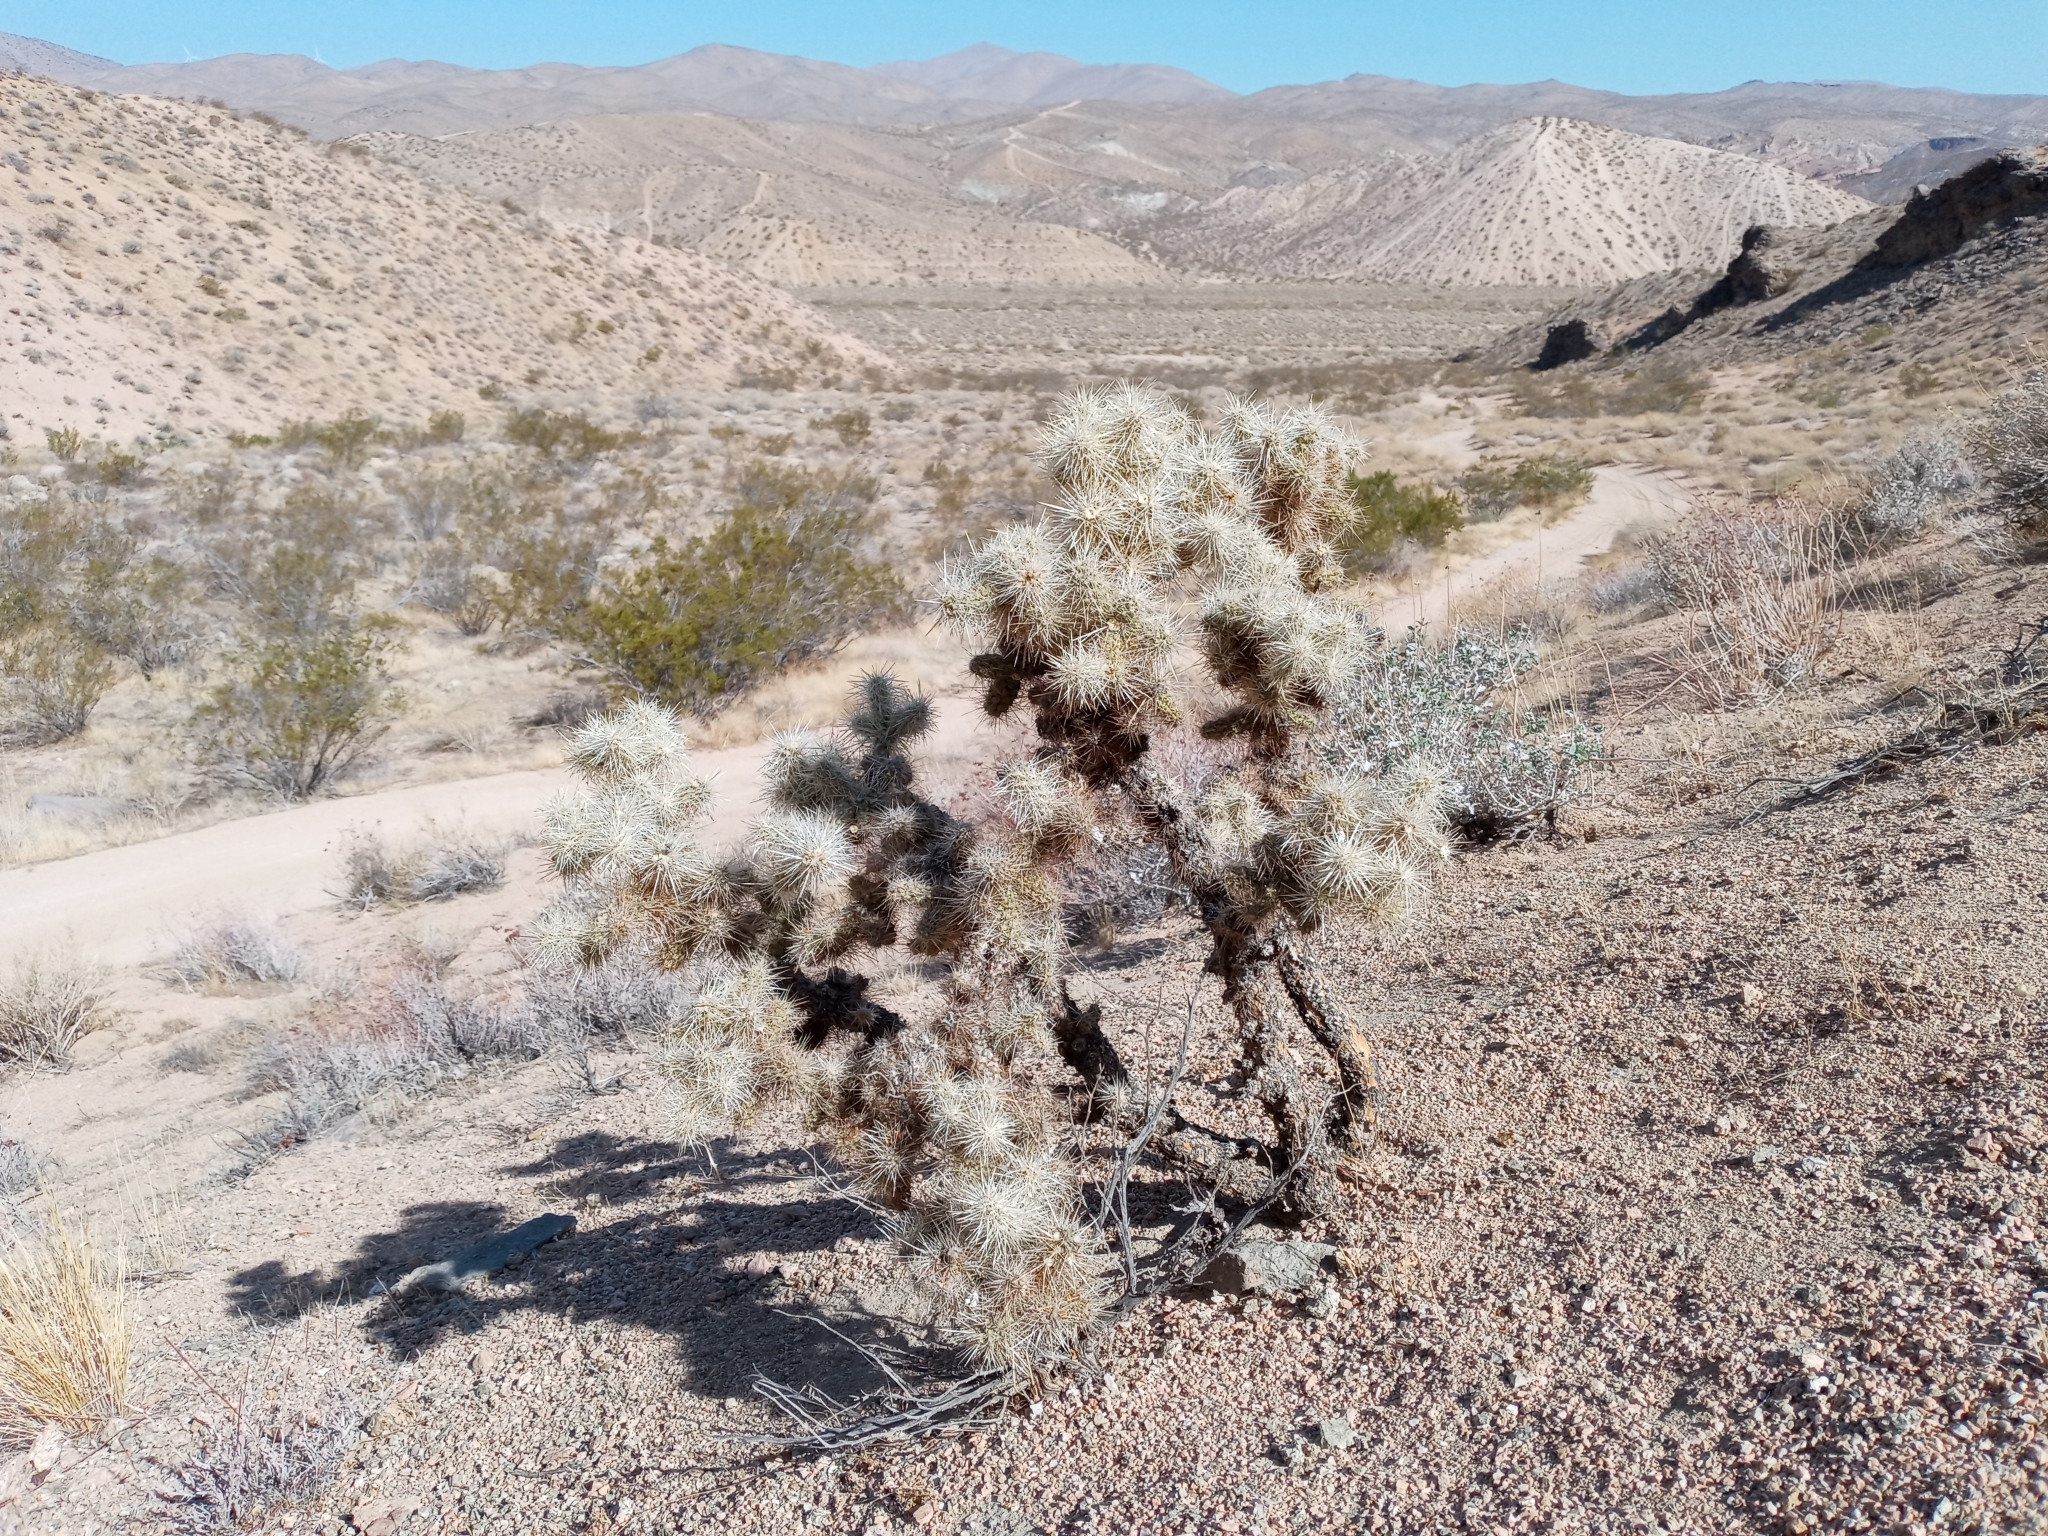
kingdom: Plantae
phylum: Tracheophyta
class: Magnoliopsida
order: Caryophyllales
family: Cactaceae
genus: Cylindropuntia
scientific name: Cylindropuntia echinocarpa
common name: Ground cholla
